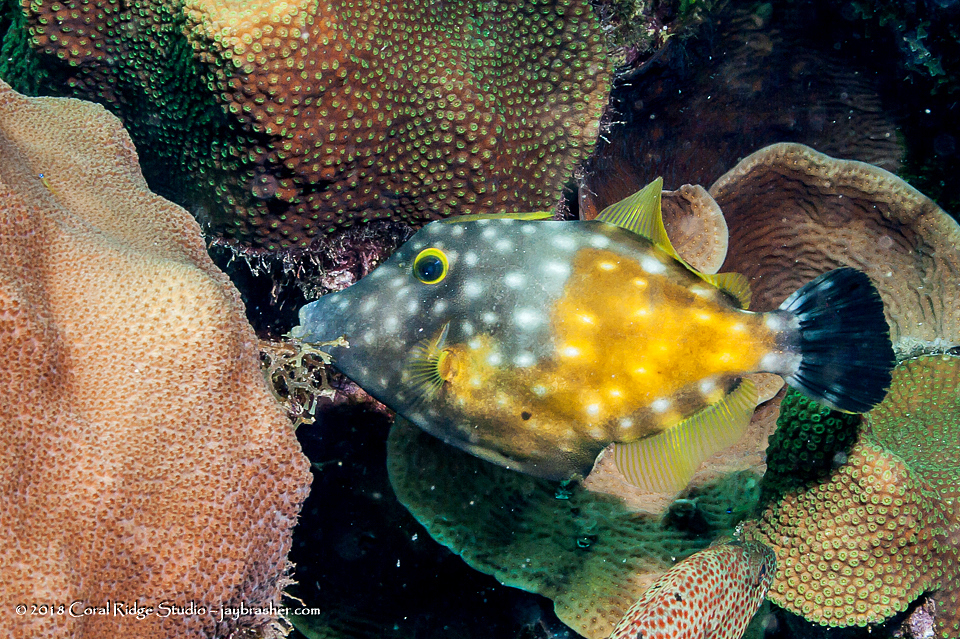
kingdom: Animalia
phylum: Chordata
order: Tetraodontiformes
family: Monacanthidae
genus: Cantherhines
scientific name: Cantherhines macrocerus
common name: Whitespotted filefish
